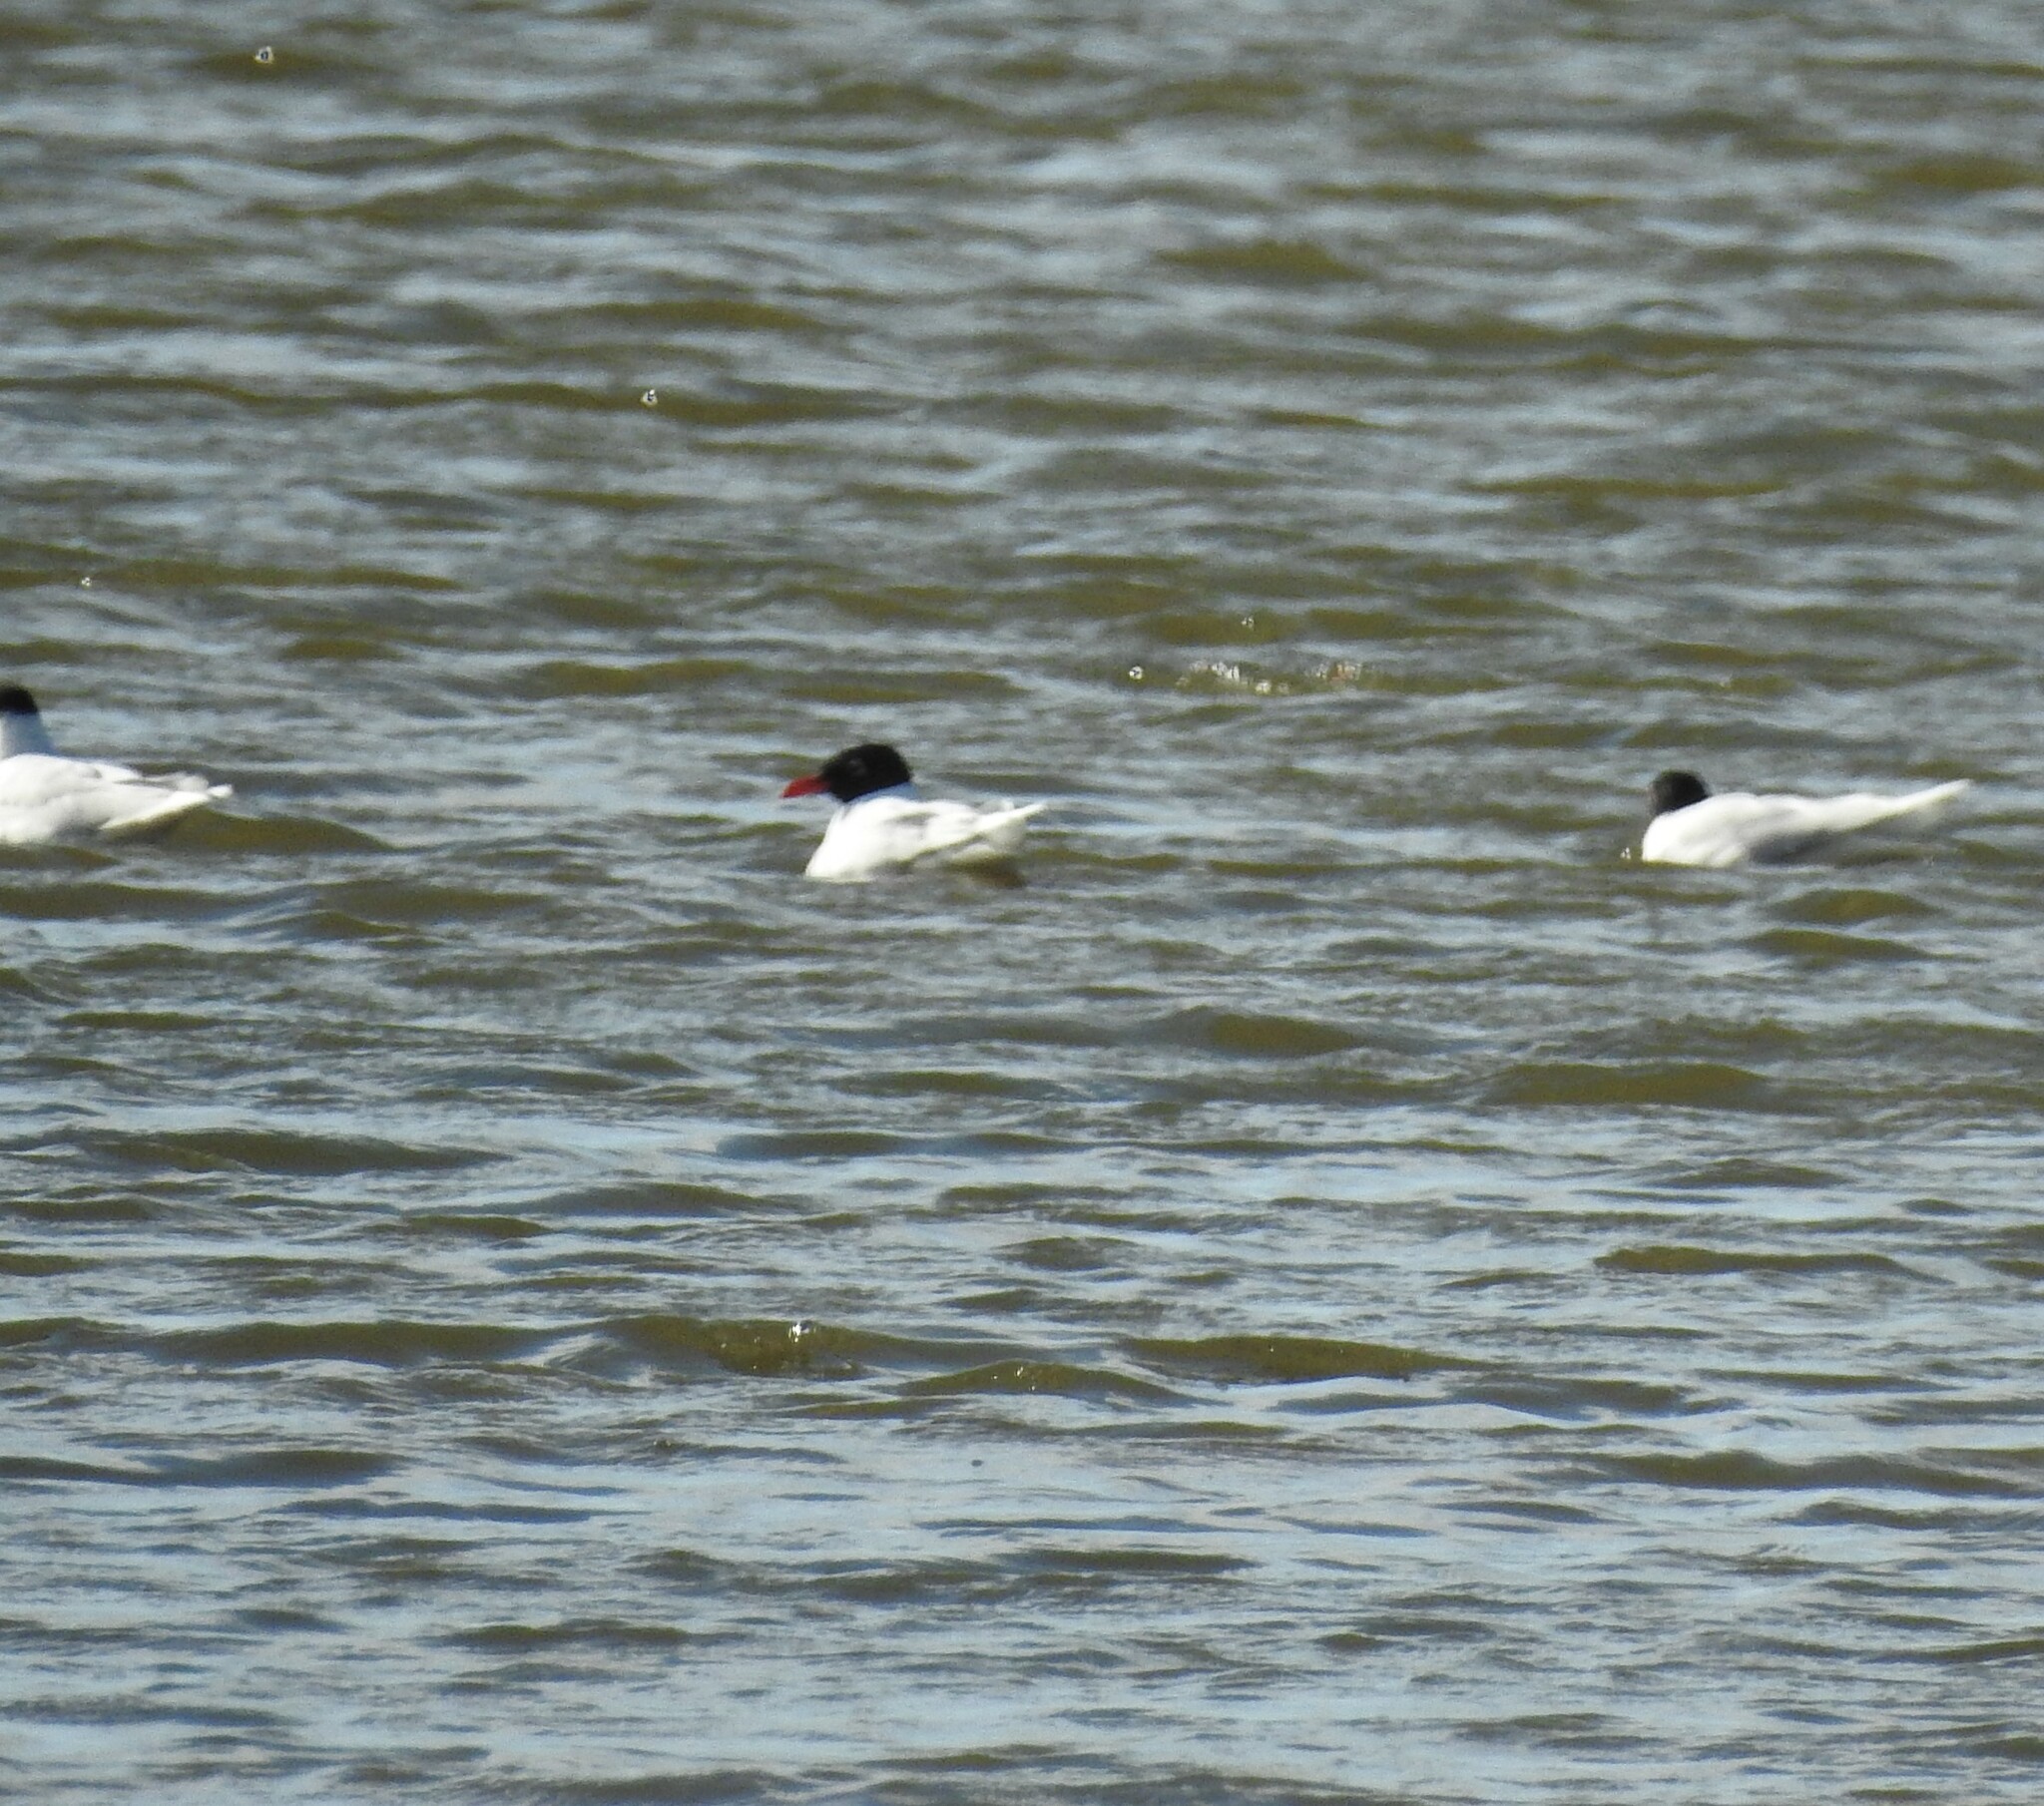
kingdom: Animalia
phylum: Chordata
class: Aves
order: Charadriiformes
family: Laridae
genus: Ichthyaetus
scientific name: Ichthyaetus melanocephalus
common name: Mediterranean gull
